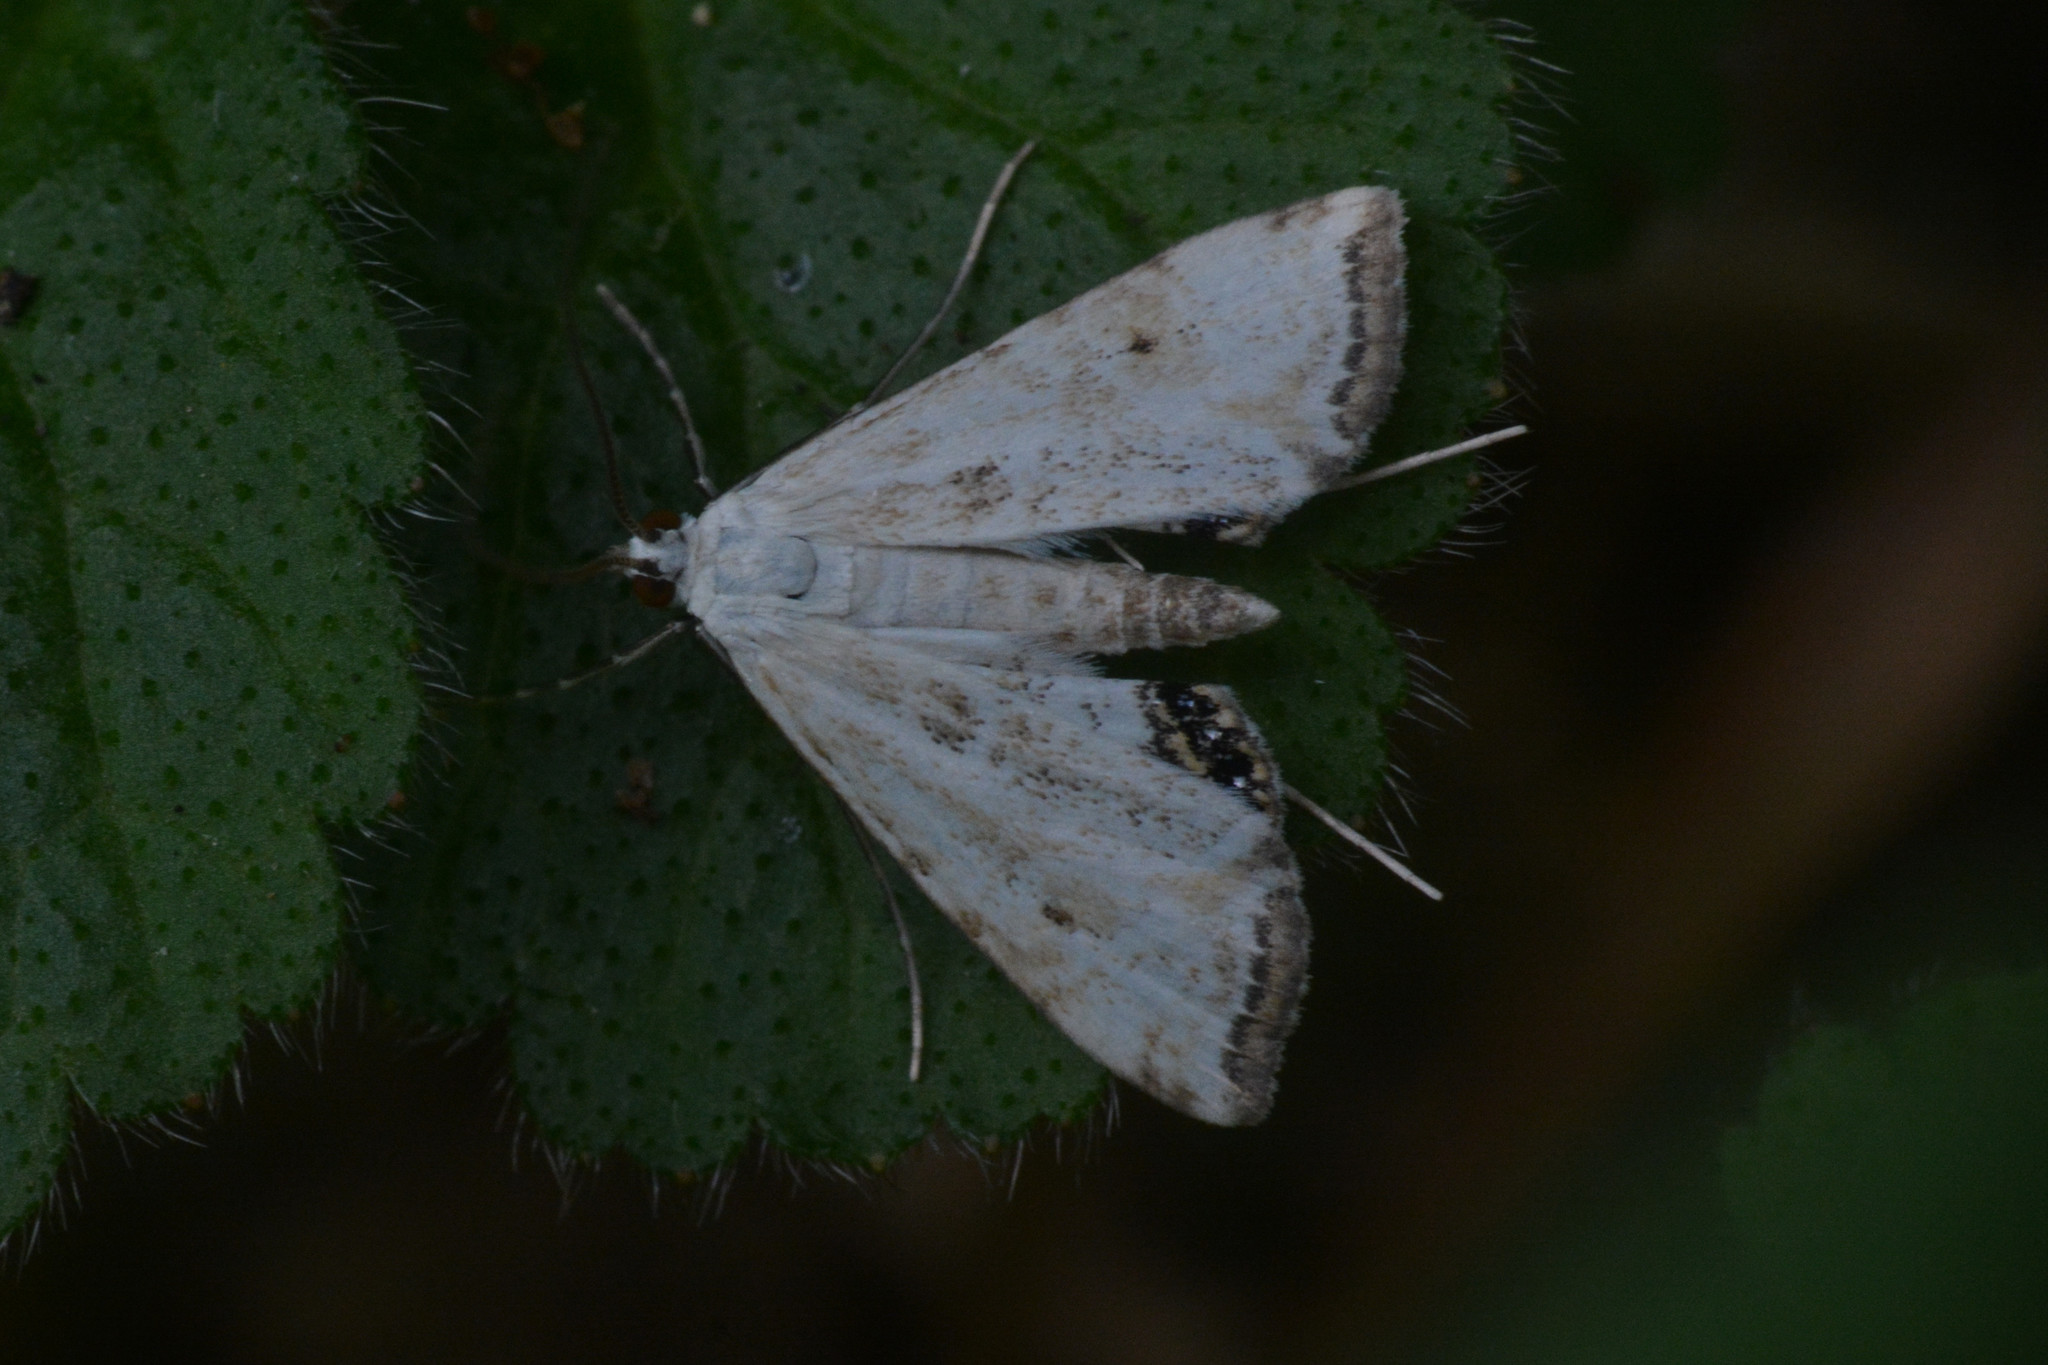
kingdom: Animalia
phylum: Arthropoda
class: Insecta
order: Lepidoptera
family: Crambidae
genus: Cataclysta
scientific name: Cataclysta lemnata
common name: Small china-mark
